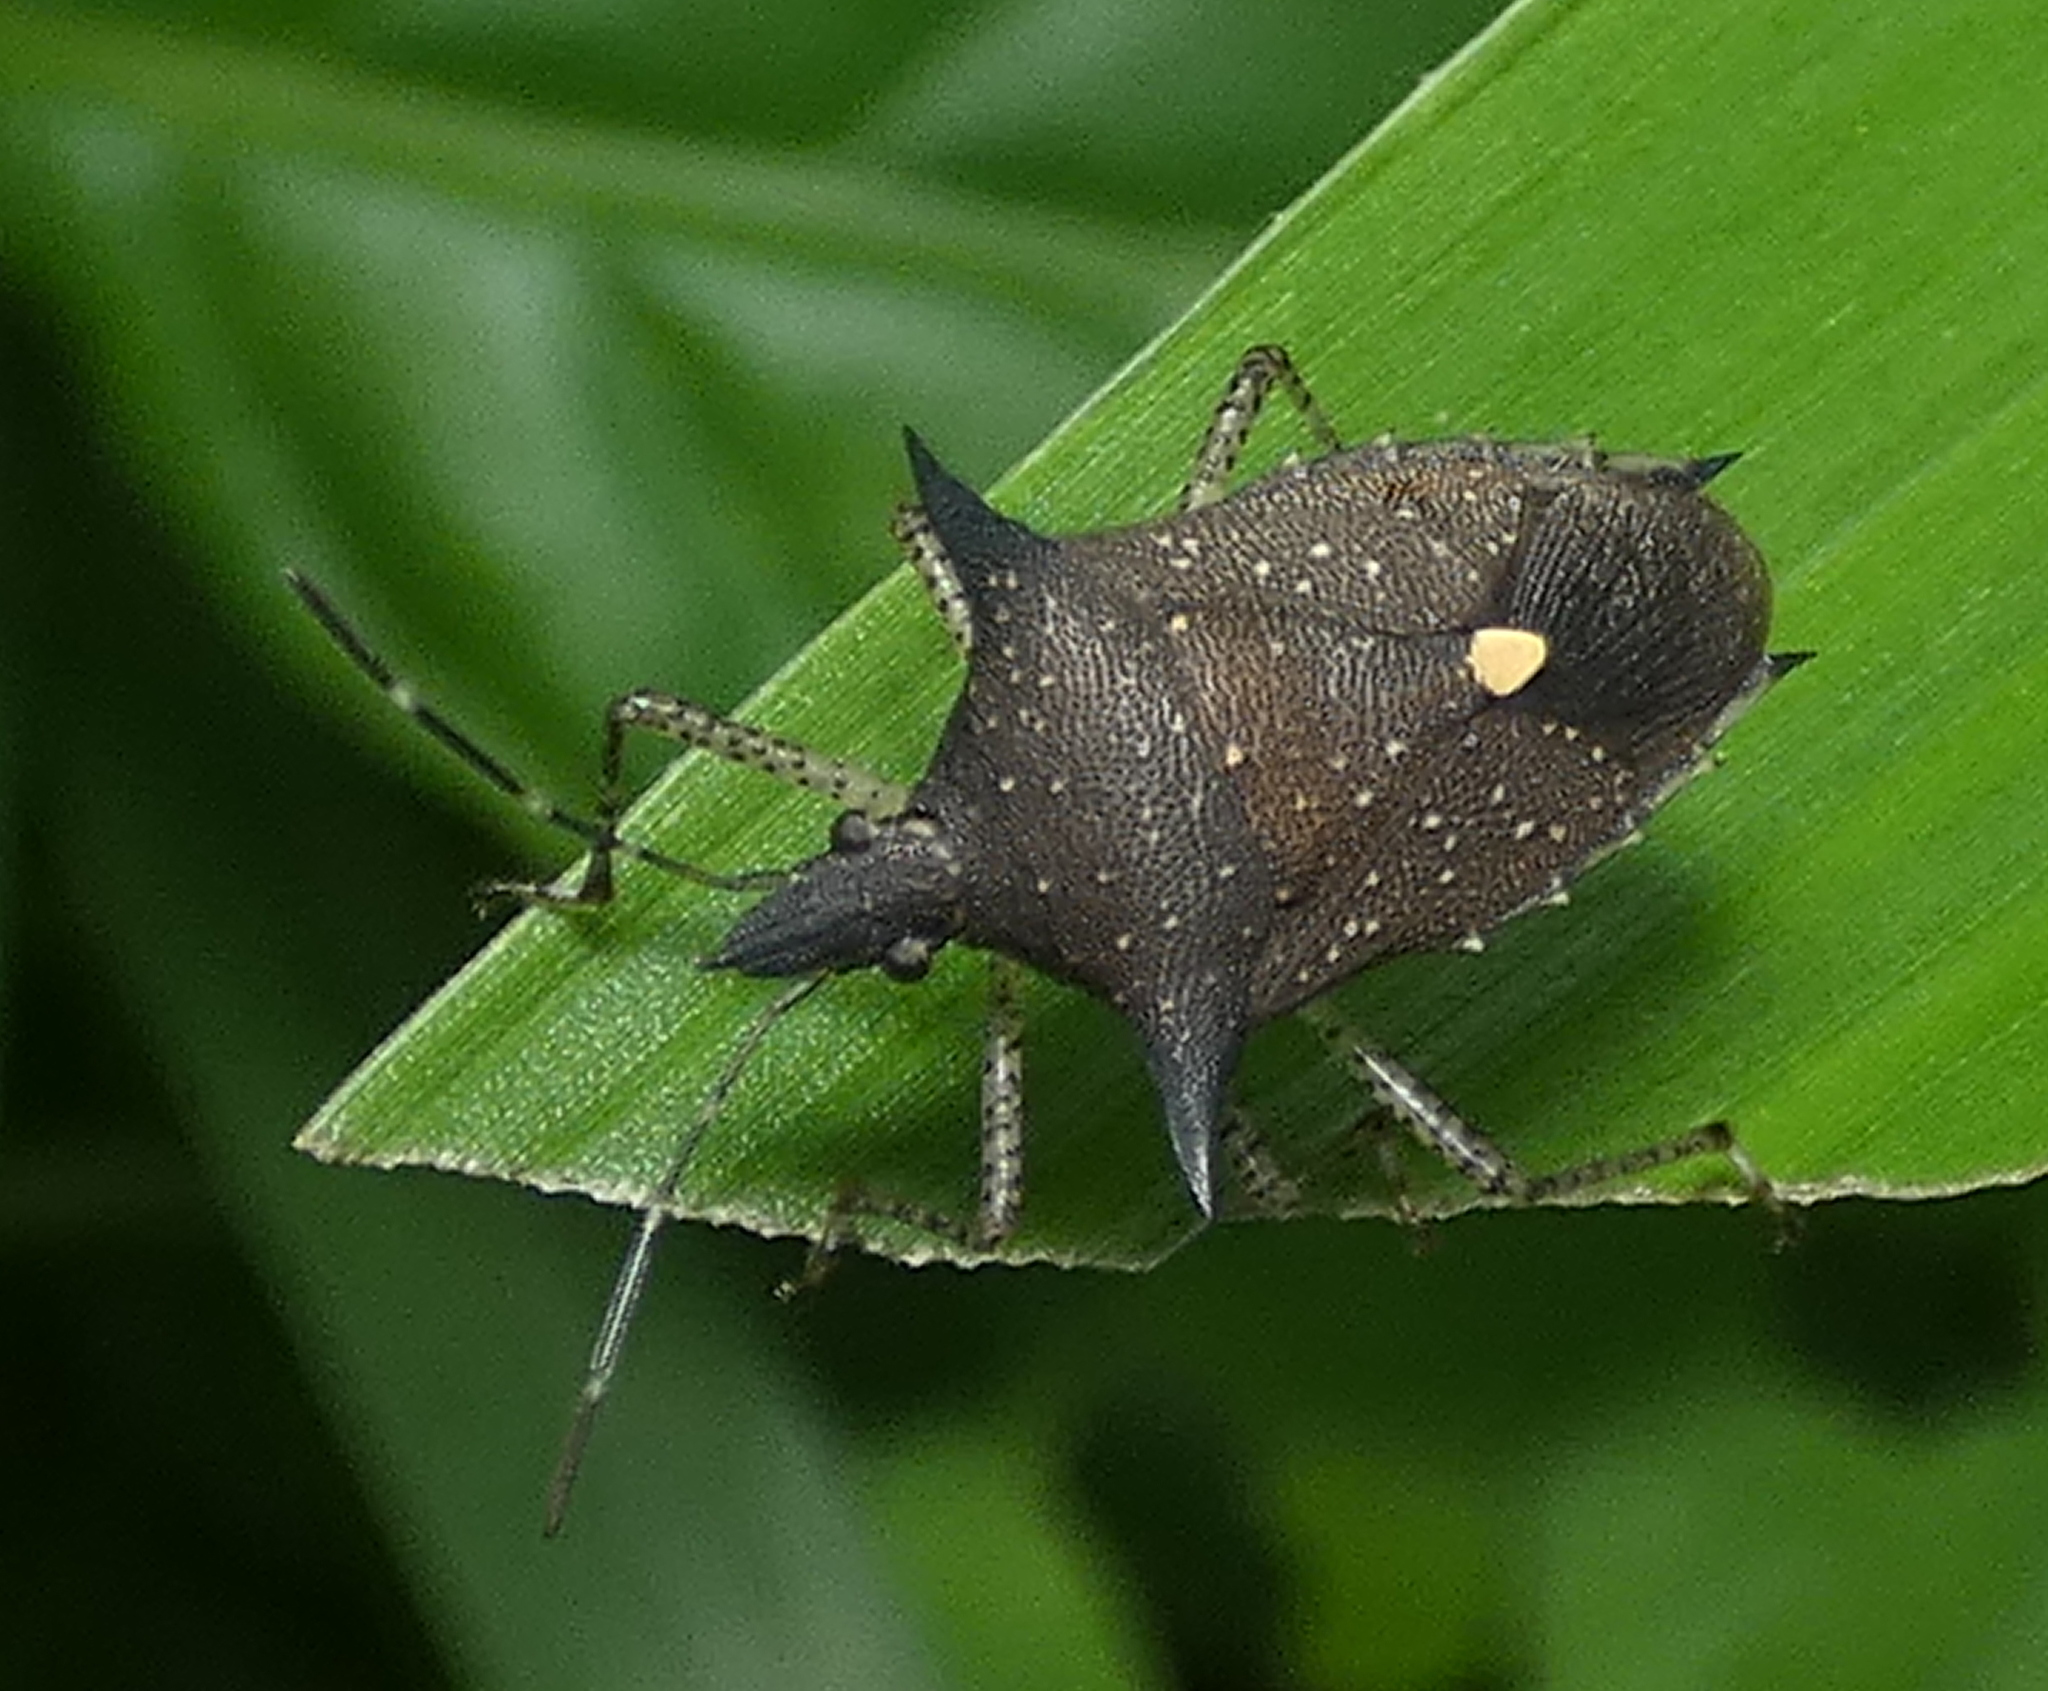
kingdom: Animalia
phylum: Arthropoda
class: Insecta
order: Hemiptera
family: Pentatomidae
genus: Proxys
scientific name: Proxys albopunctulatus
